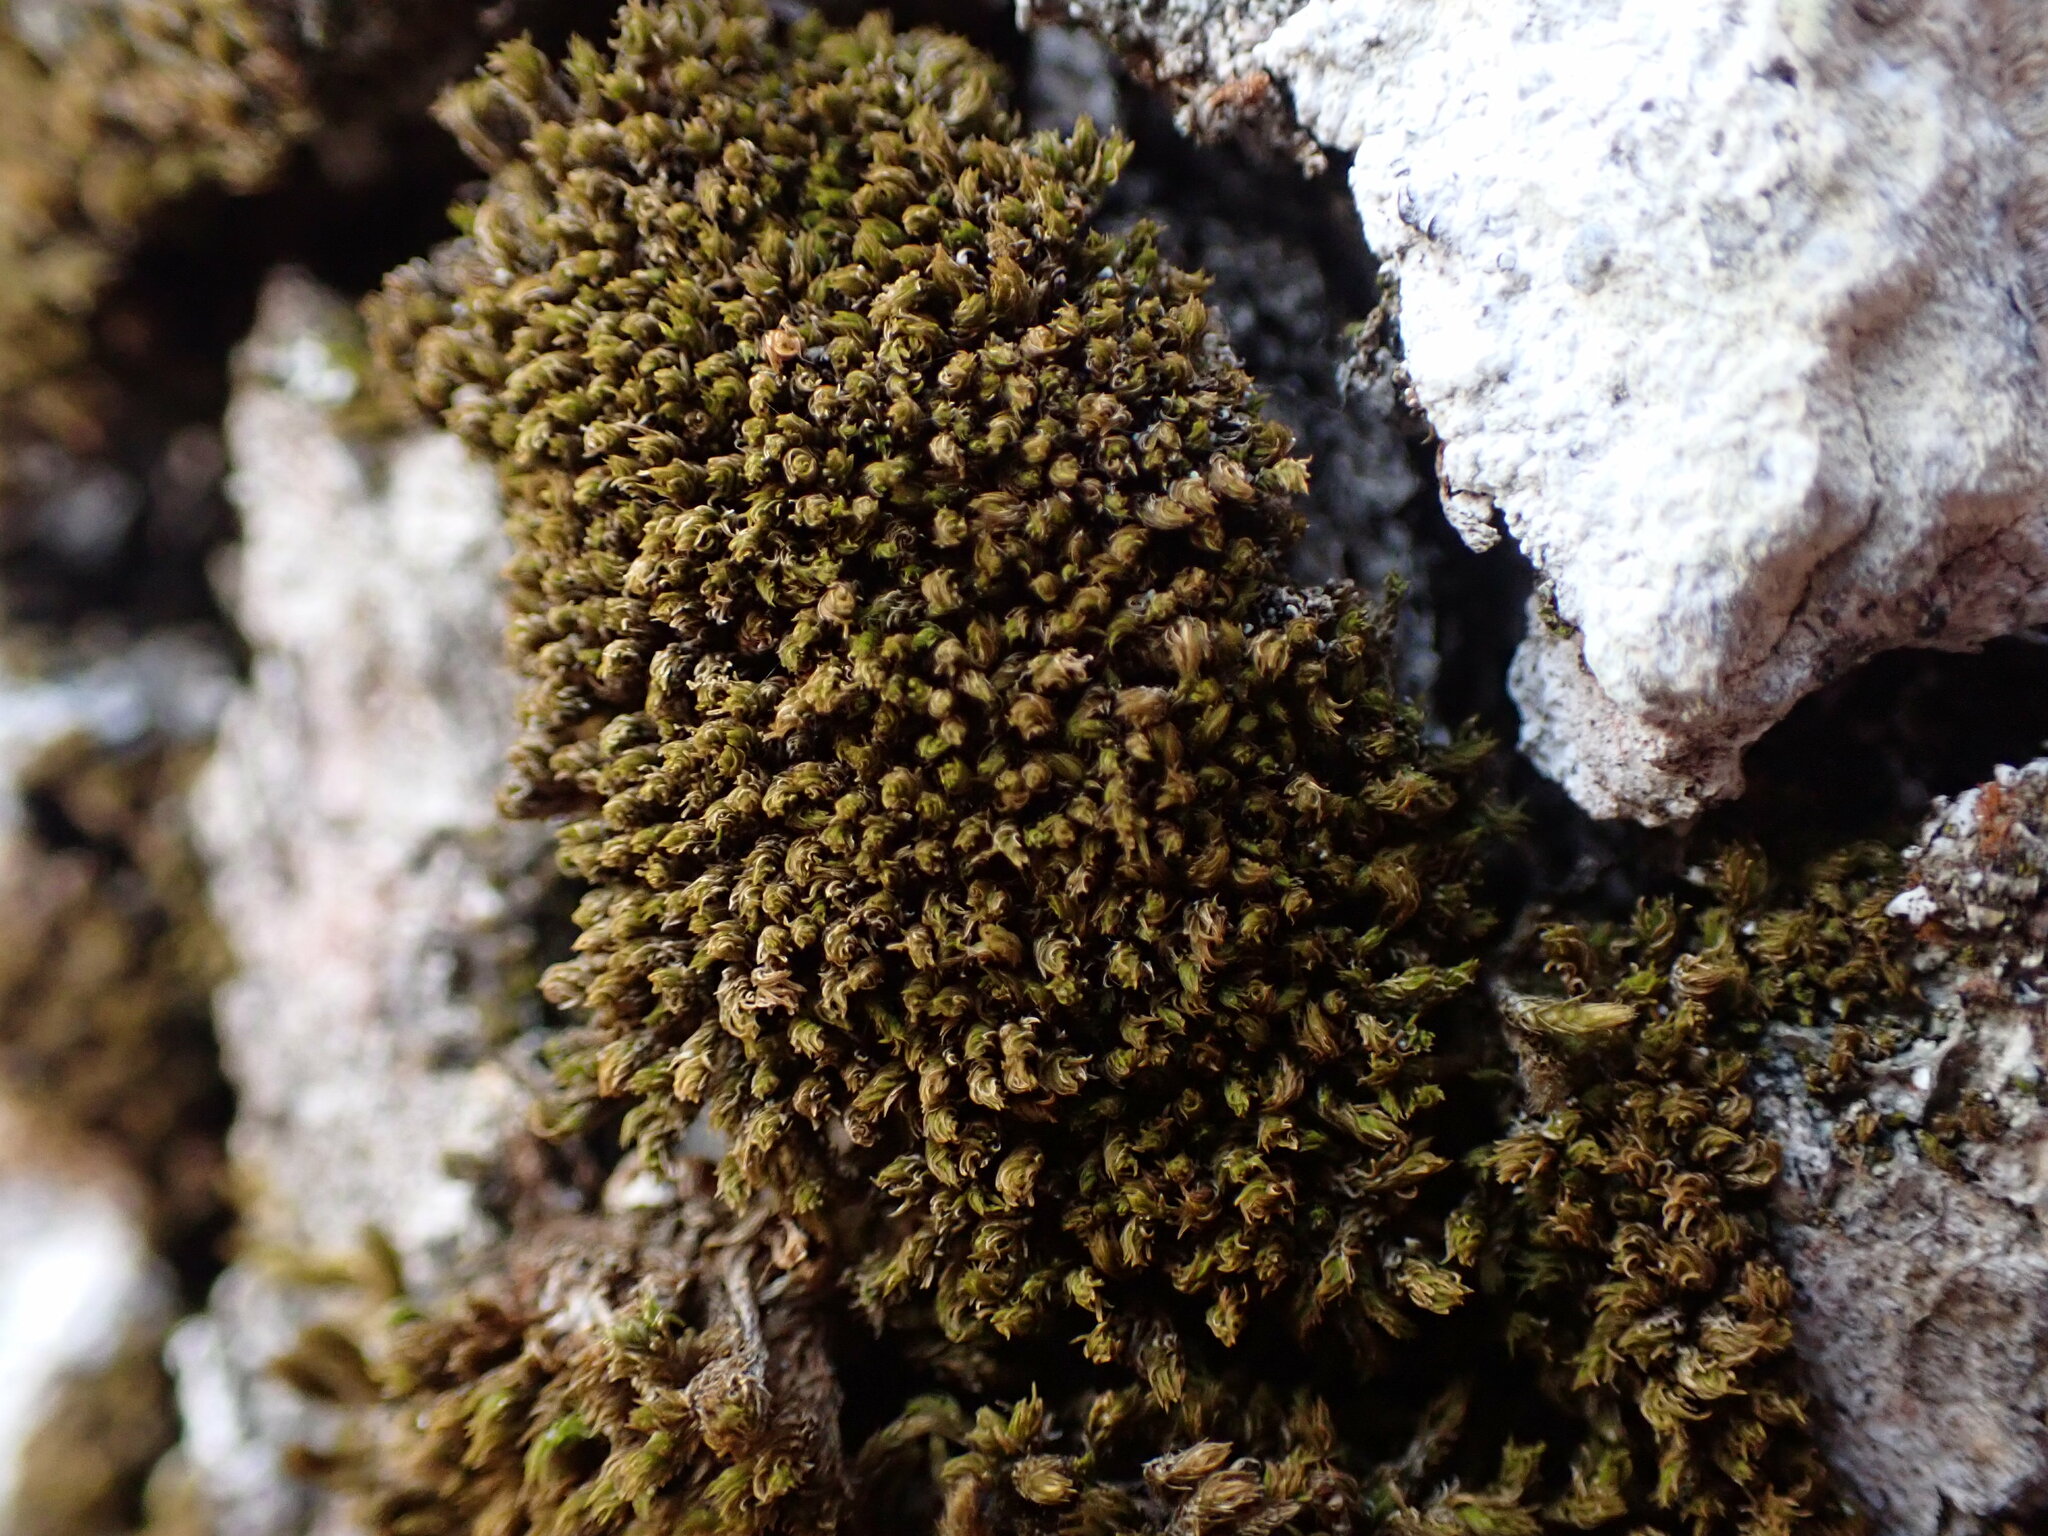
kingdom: Plantae
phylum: Bryophyta
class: Bryopsida
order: Orthotrichales
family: Orthotrichaceae
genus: Zygodon
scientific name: Zygodon rupestris
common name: Park yoke moss
